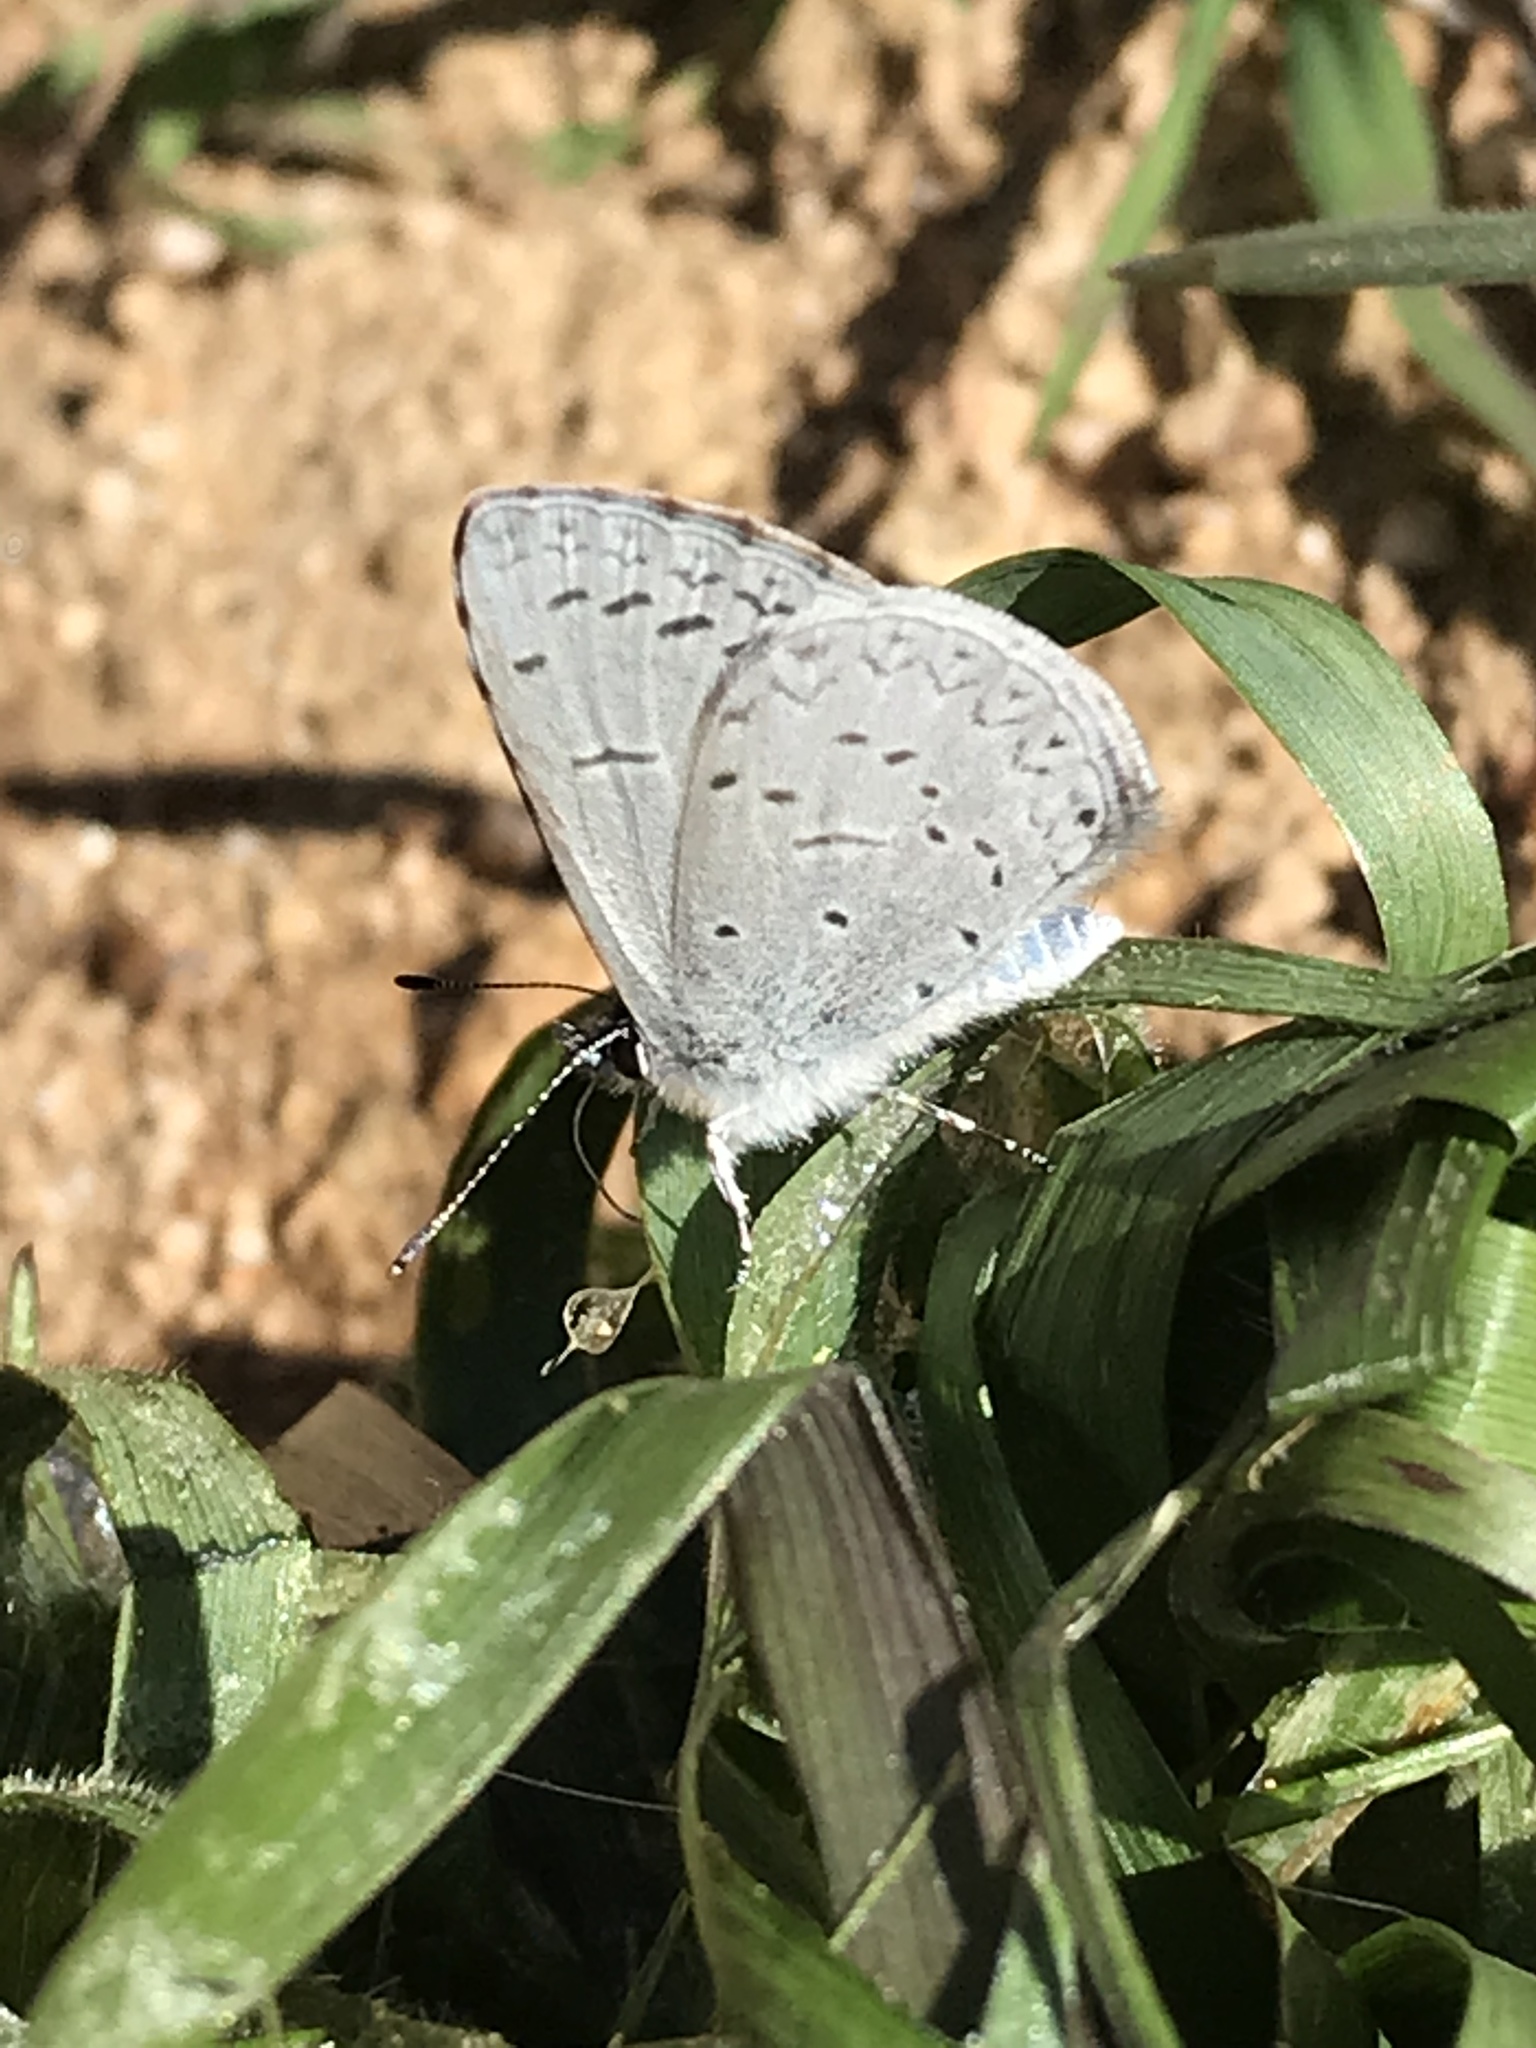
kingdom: Animalia
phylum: Arthropoda
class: Insecta
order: Lepidoptera
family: Lycaenidae
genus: Celastrina
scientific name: Celastrina ladon
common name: Spring azure
